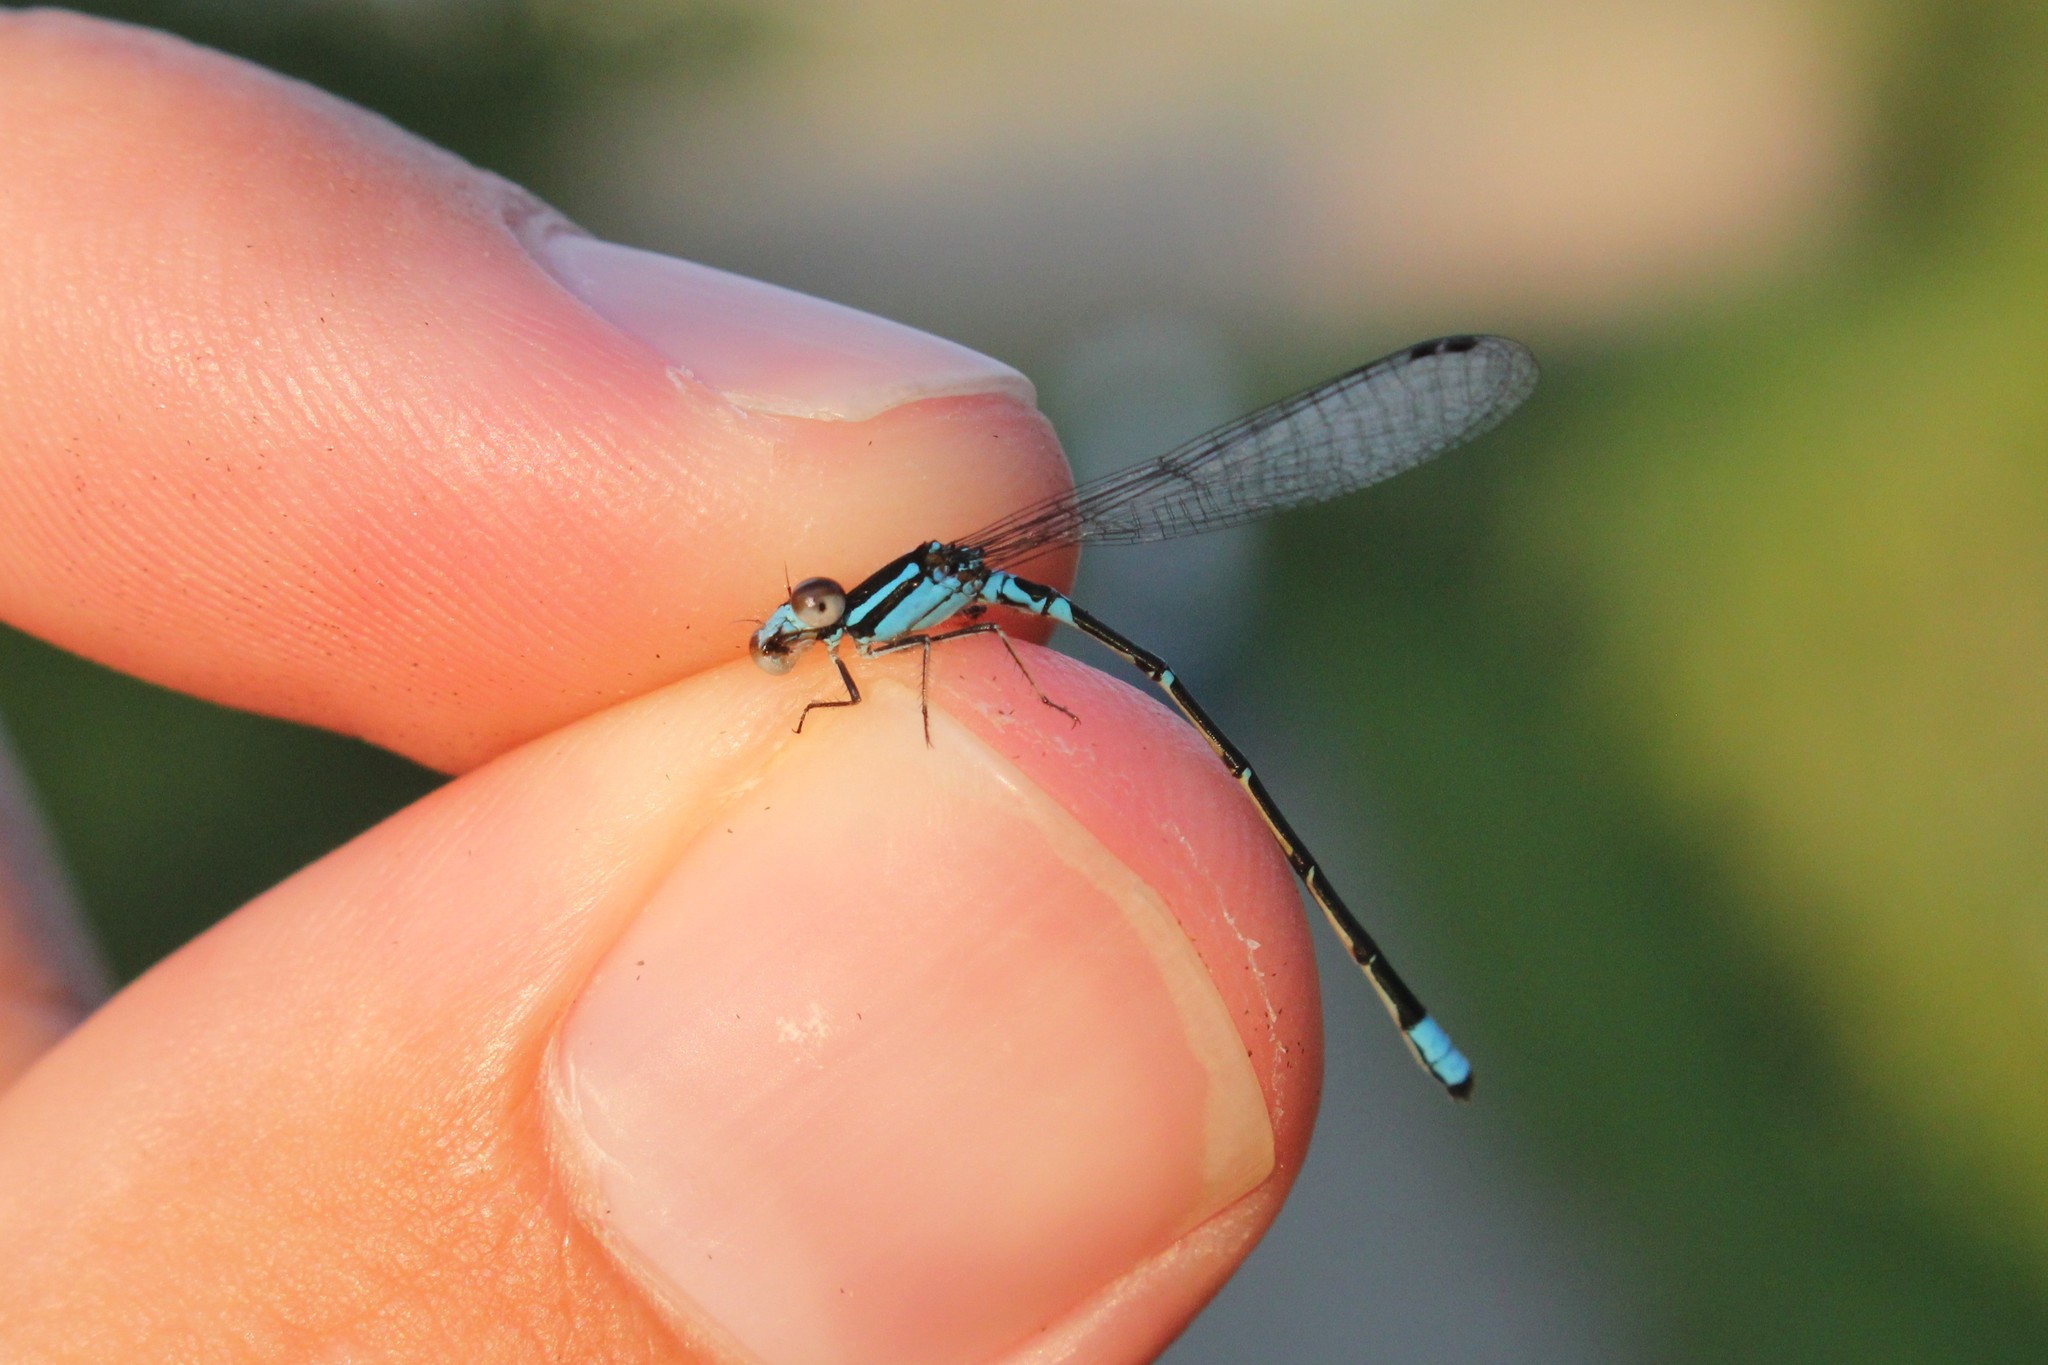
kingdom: Animalia
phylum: Arthropoda
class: Insecta
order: Odonata
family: Coenagrionidae
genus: Enallagma
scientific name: Enallagma geminatum
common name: Skimming bluet
